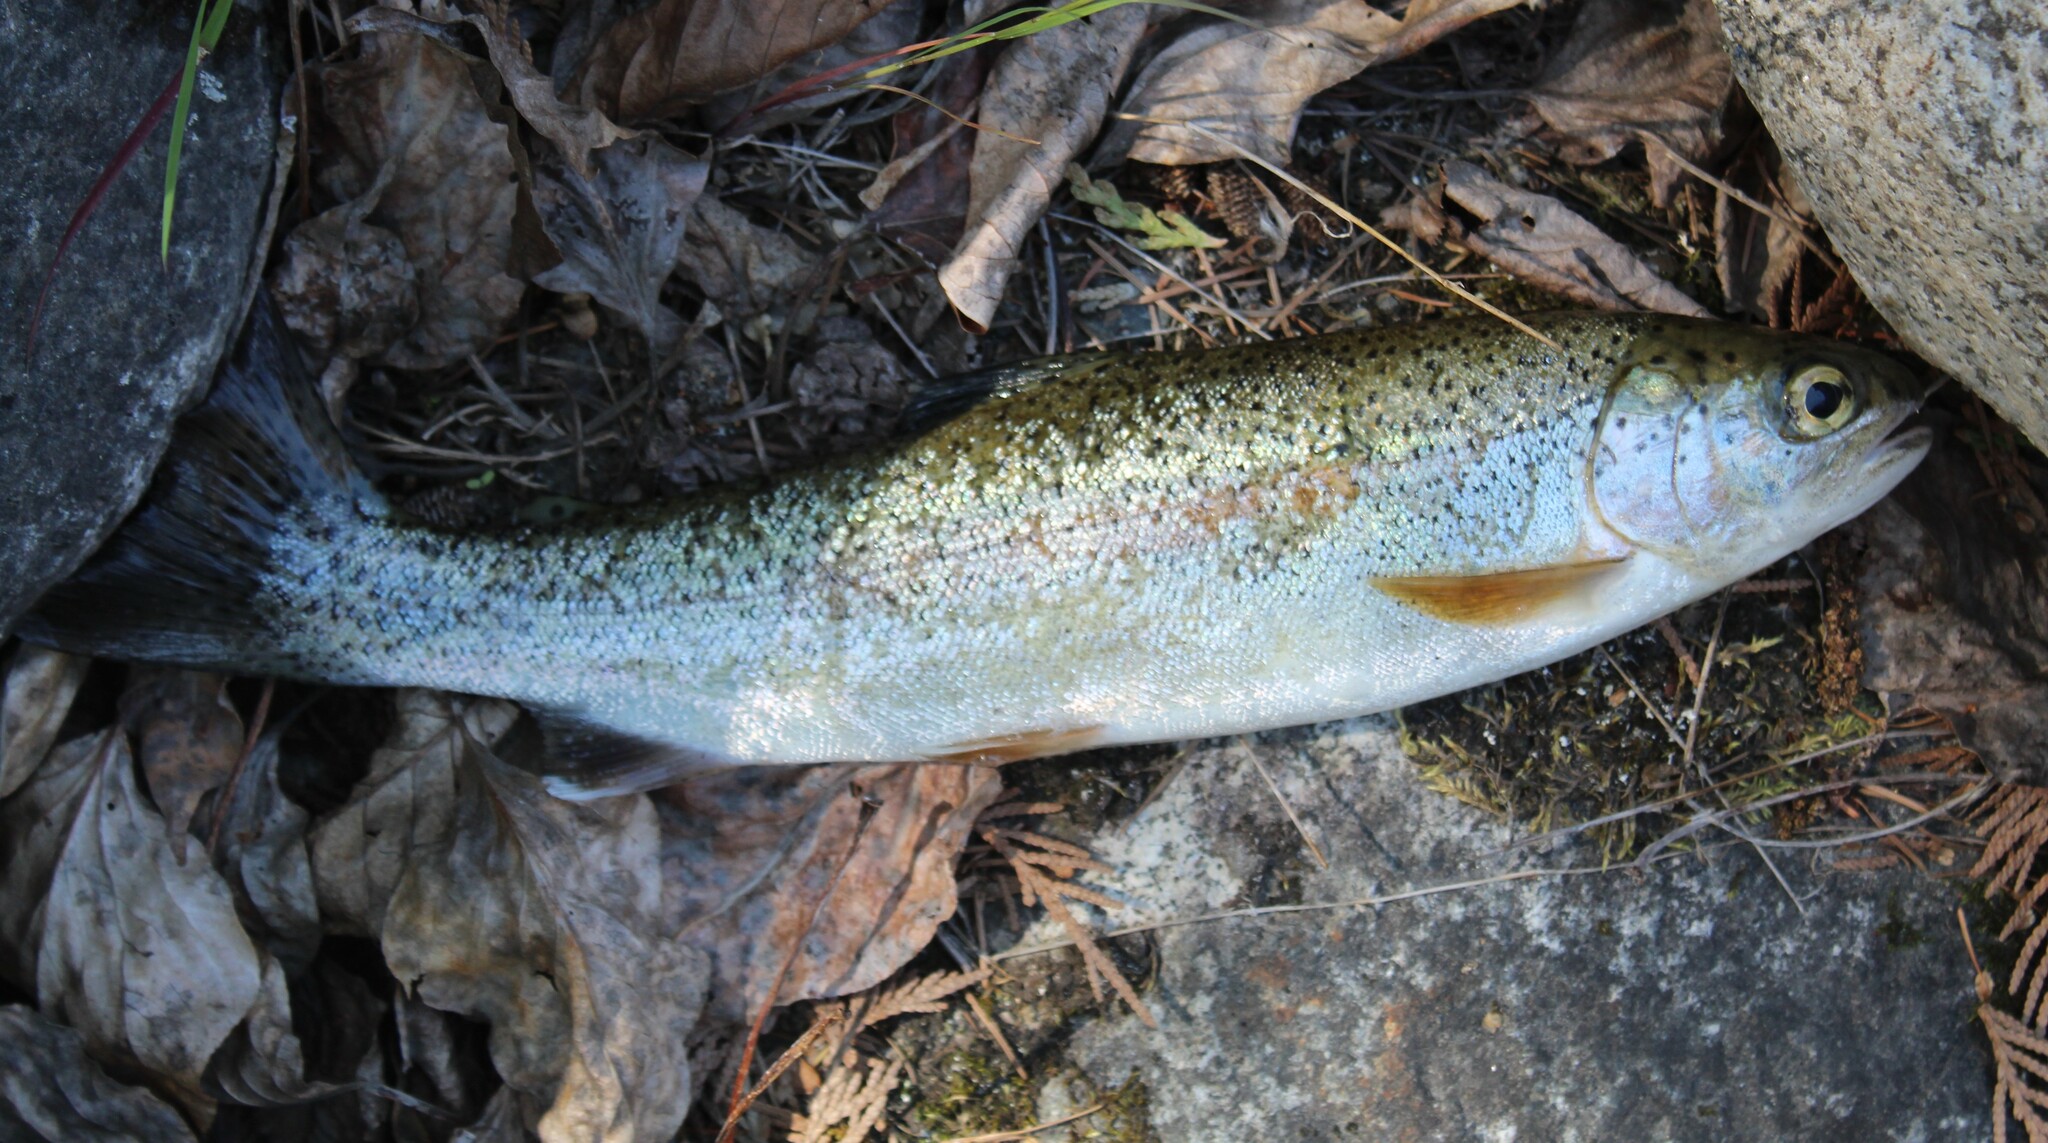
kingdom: Animalia
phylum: Chordata
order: Salmoniformes
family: Salmonidae
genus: Oncorhynchus
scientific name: Oncorhynchus mykiss
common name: Rainbow trout
